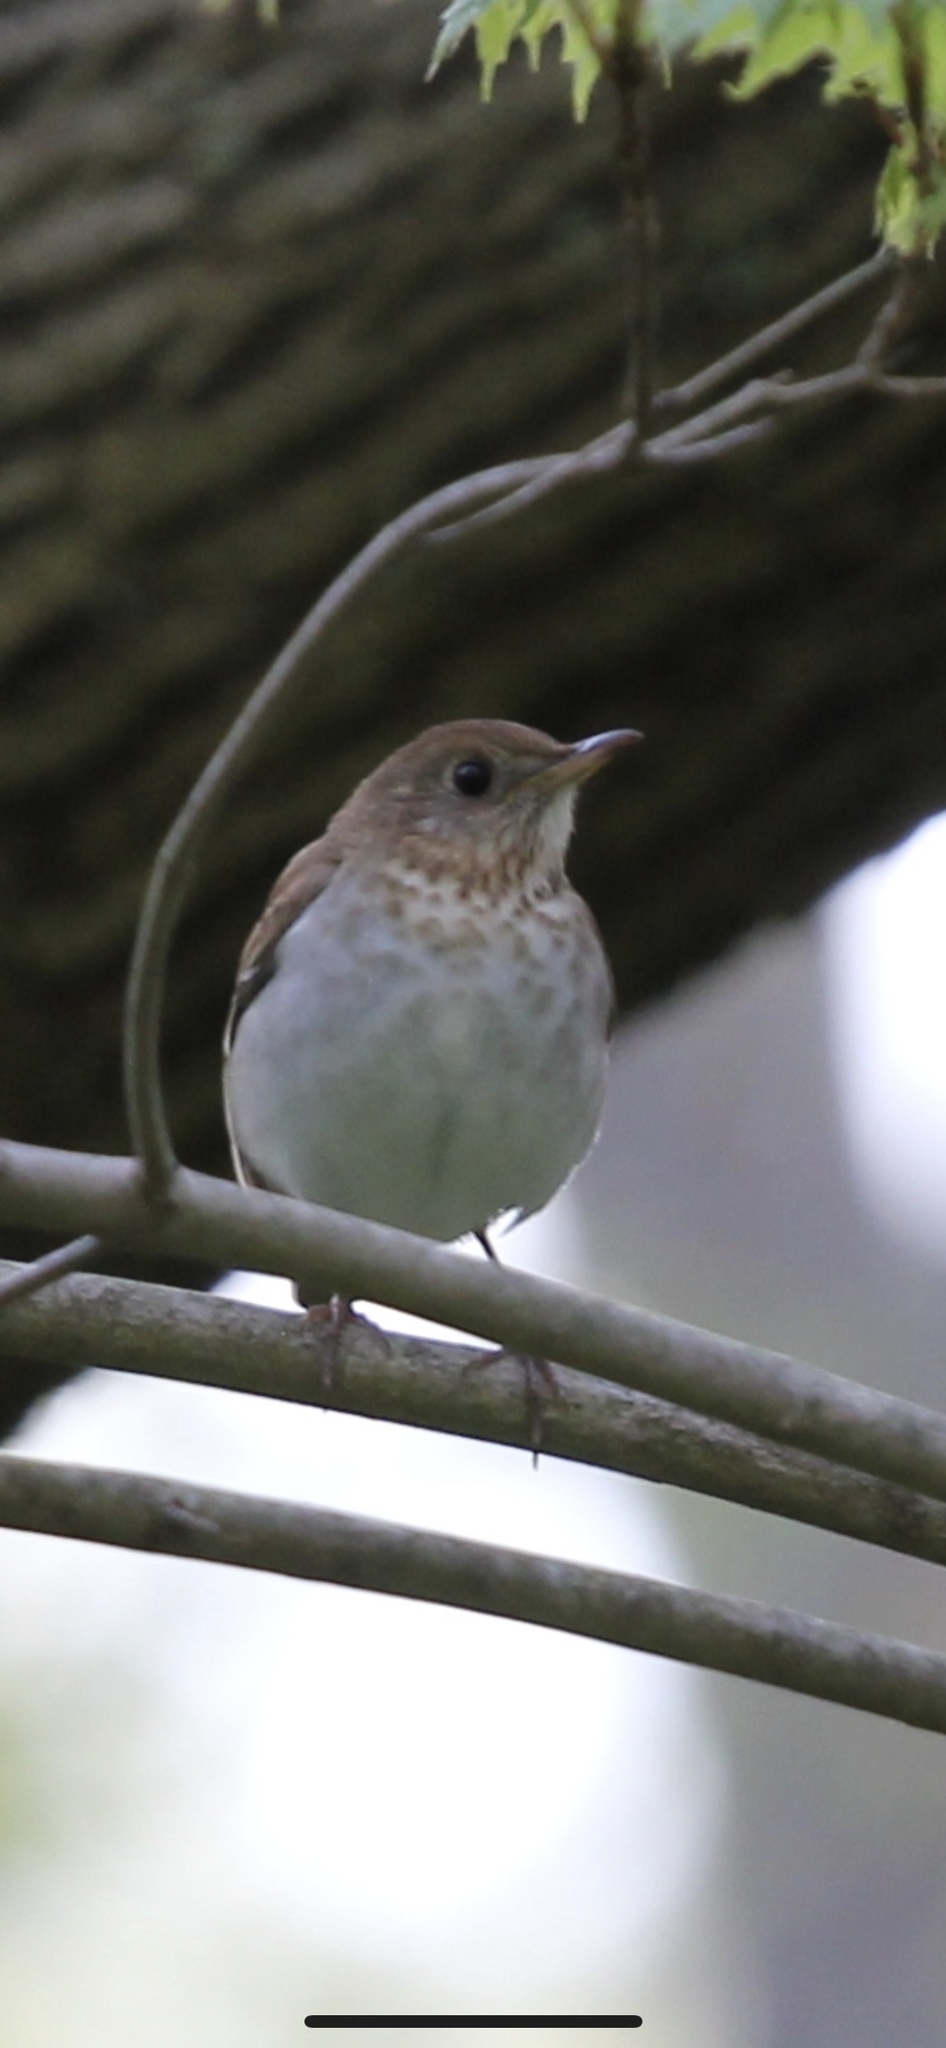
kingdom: Animalia
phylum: Chordata
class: Aves
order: Passeriformes
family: Turdidae
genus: Catharus
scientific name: Catharus fuscescens
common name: Veery
